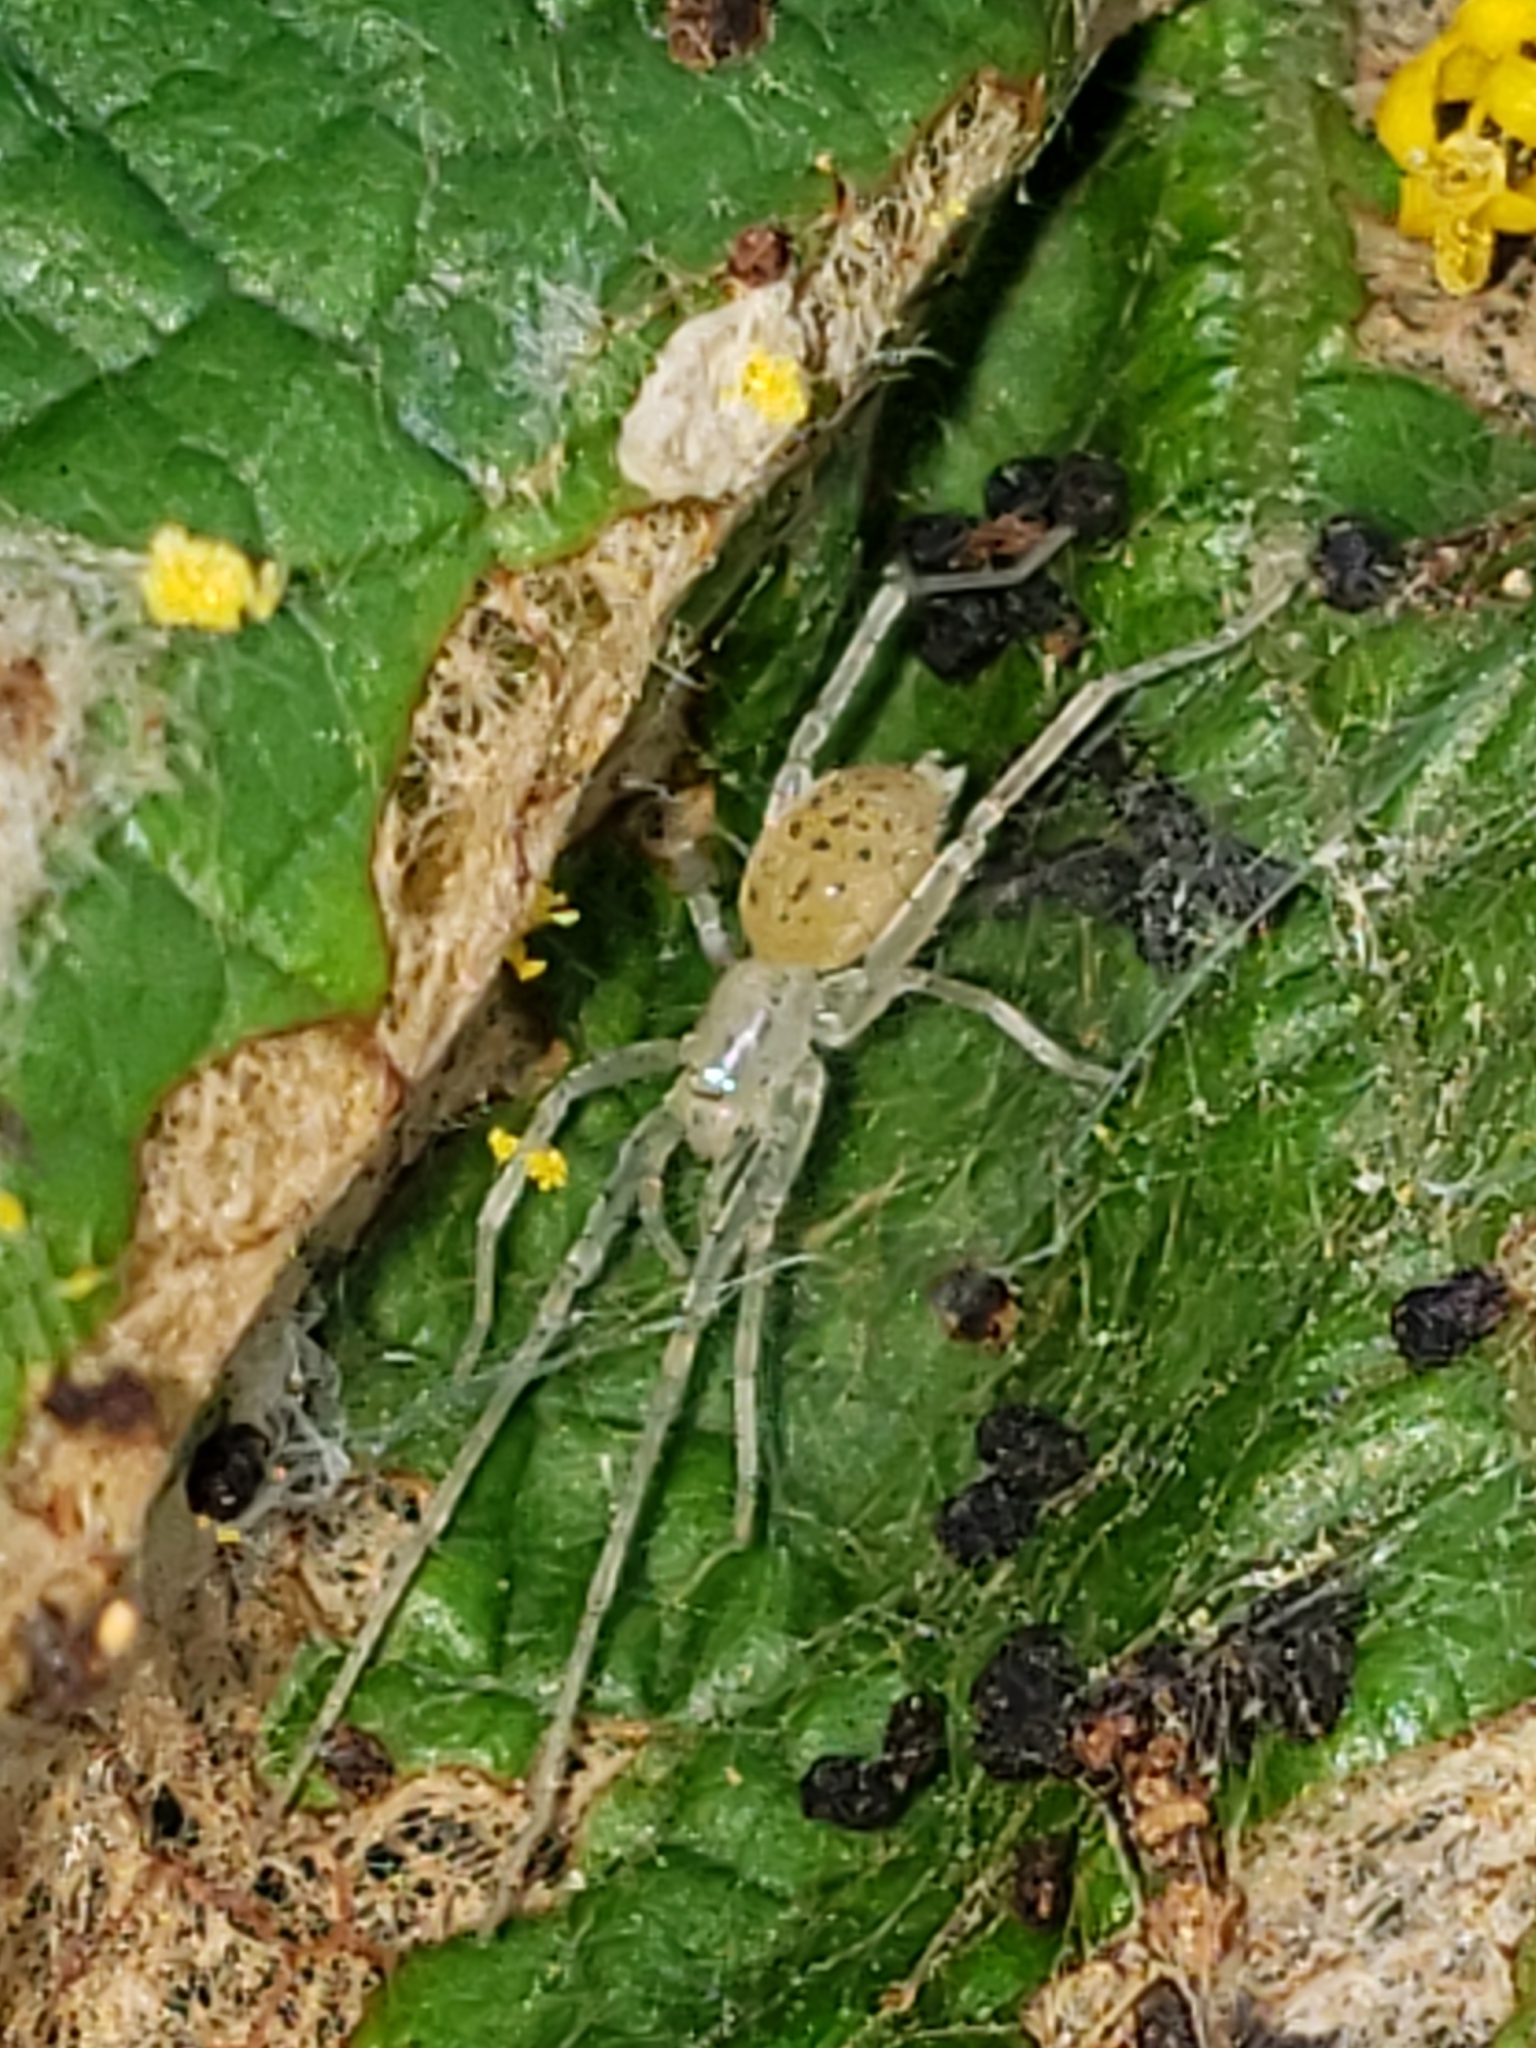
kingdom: Animalia
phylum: Arthropoda
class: Arachnida
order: Araneae
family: Anyphaenidae
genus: Wulfila
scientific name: Wulfila saltabundus
